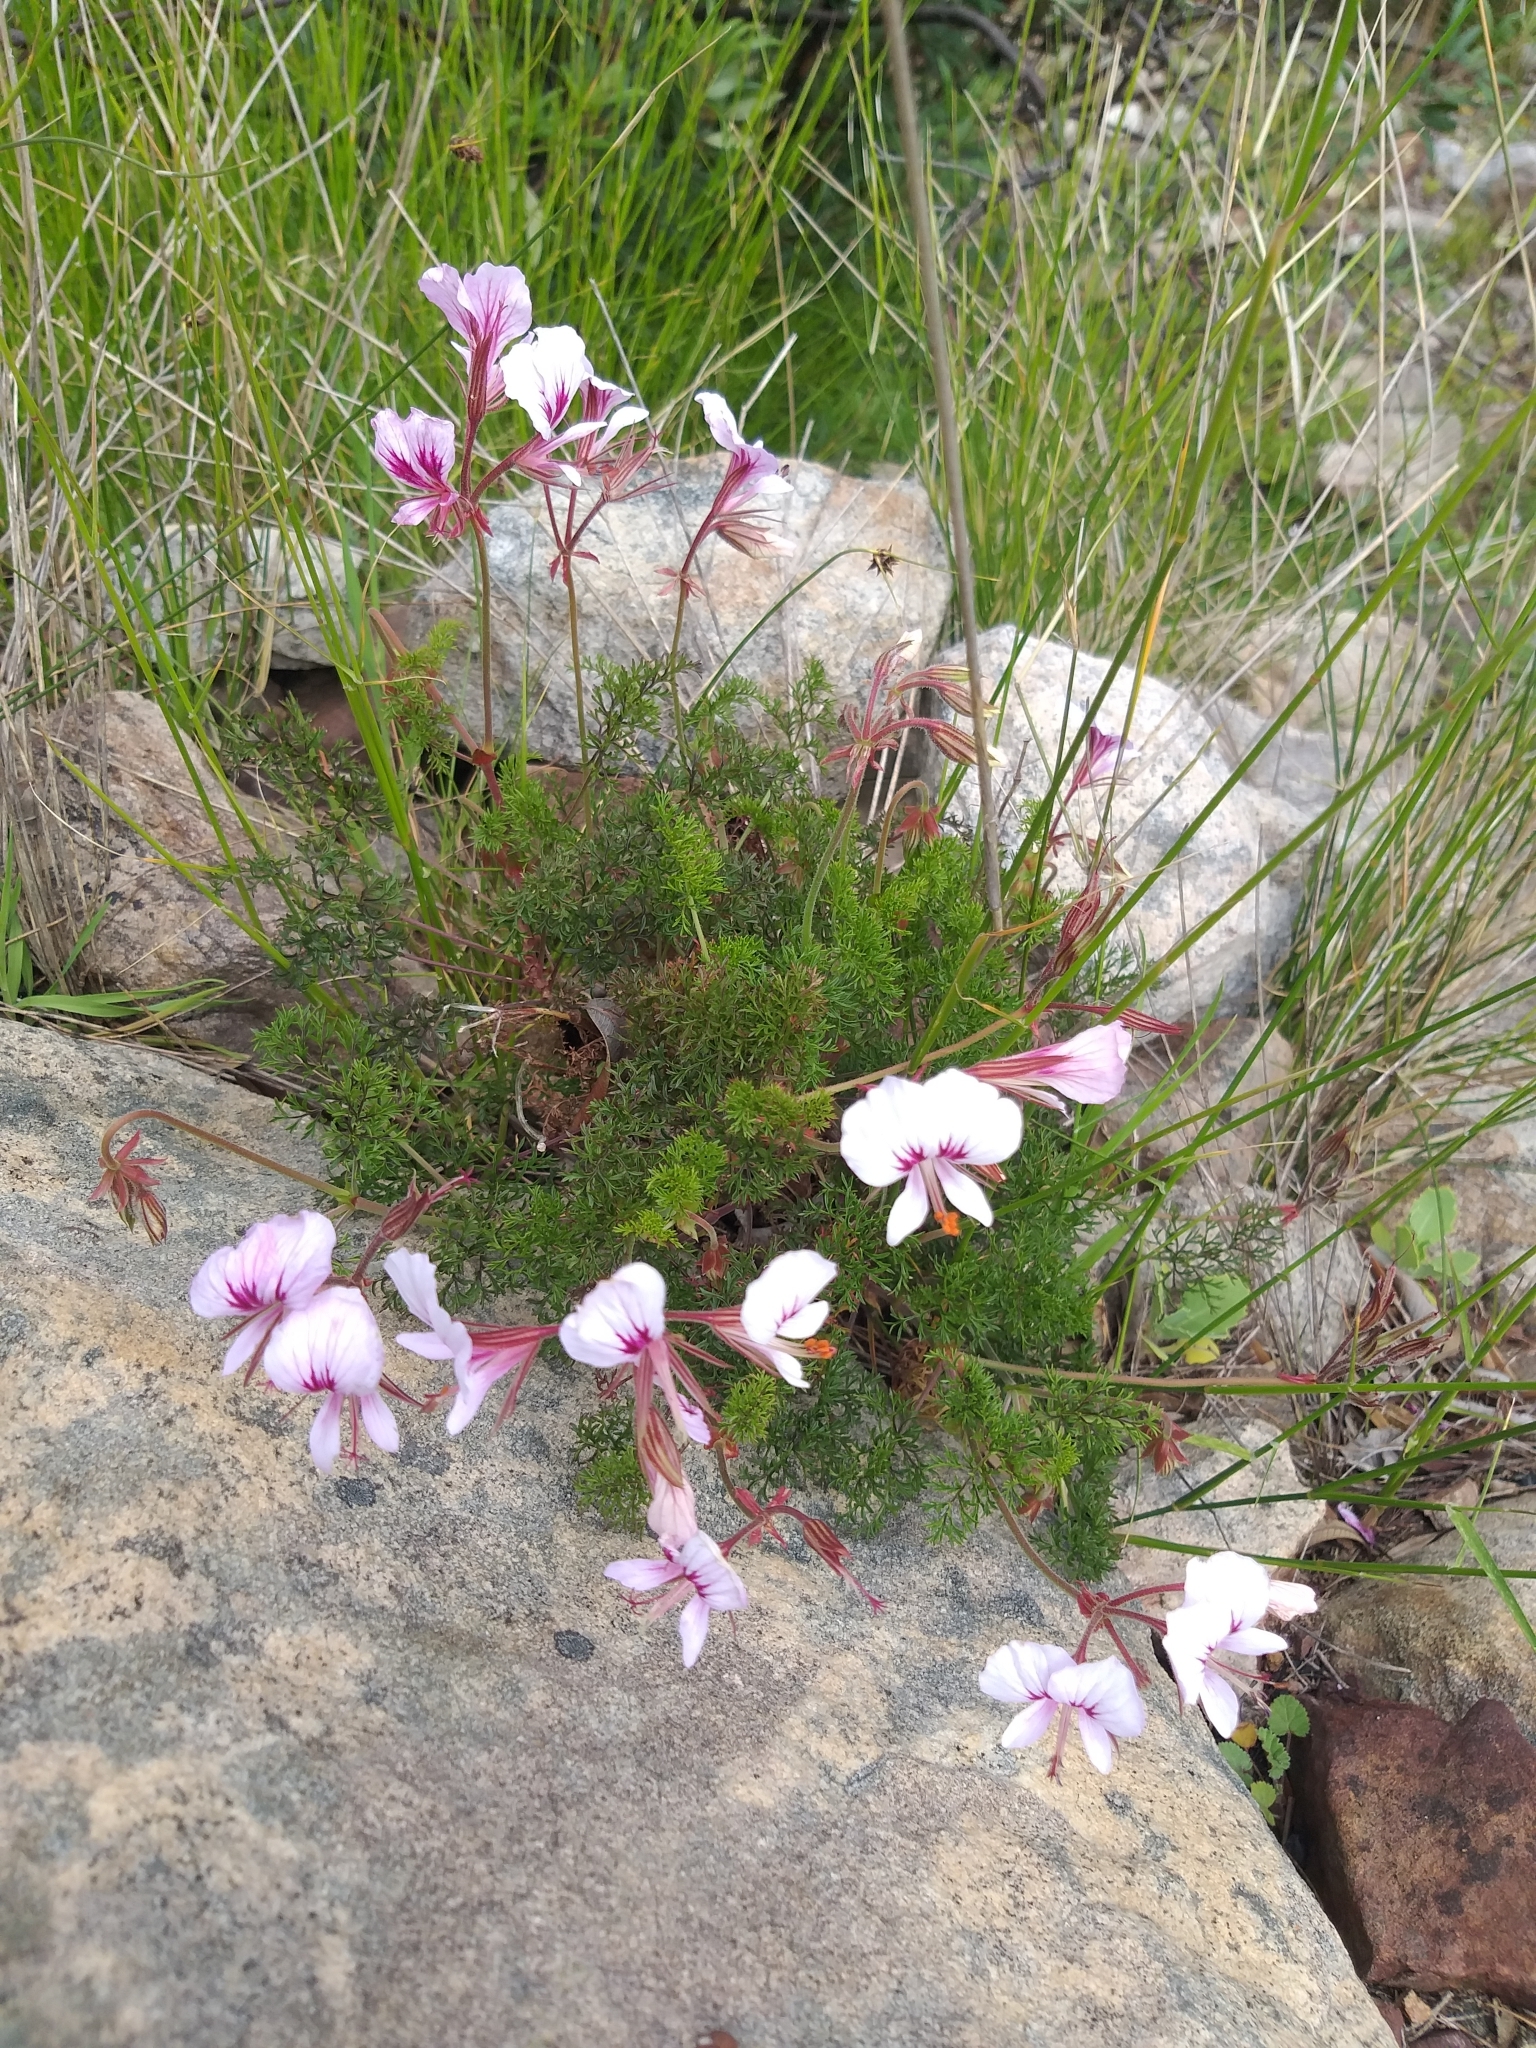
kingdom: Plantae
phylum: Tracheophyta
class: Magnoliopsida
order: Geraniales
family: Geraniaceae
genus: Pelargonium
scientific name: Pelargonium myrrhifolium
